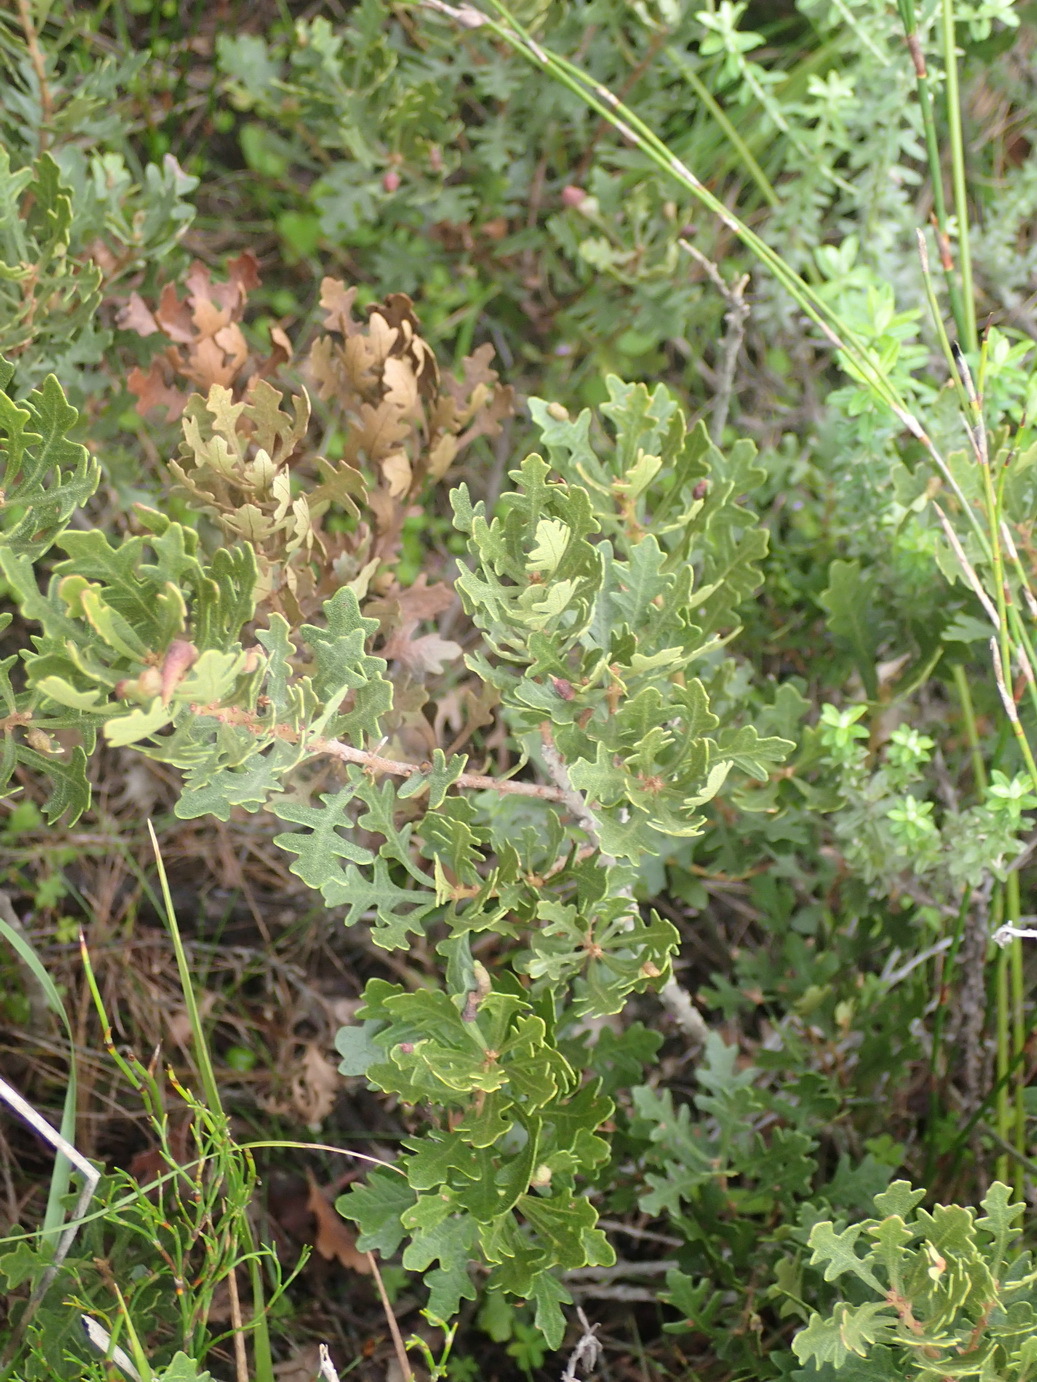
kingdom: Plantae
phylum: Tracheophyta
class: Magnoliopsida
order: Fagales
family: Myricaceae
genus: Morella
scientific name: Morella quercifolia
